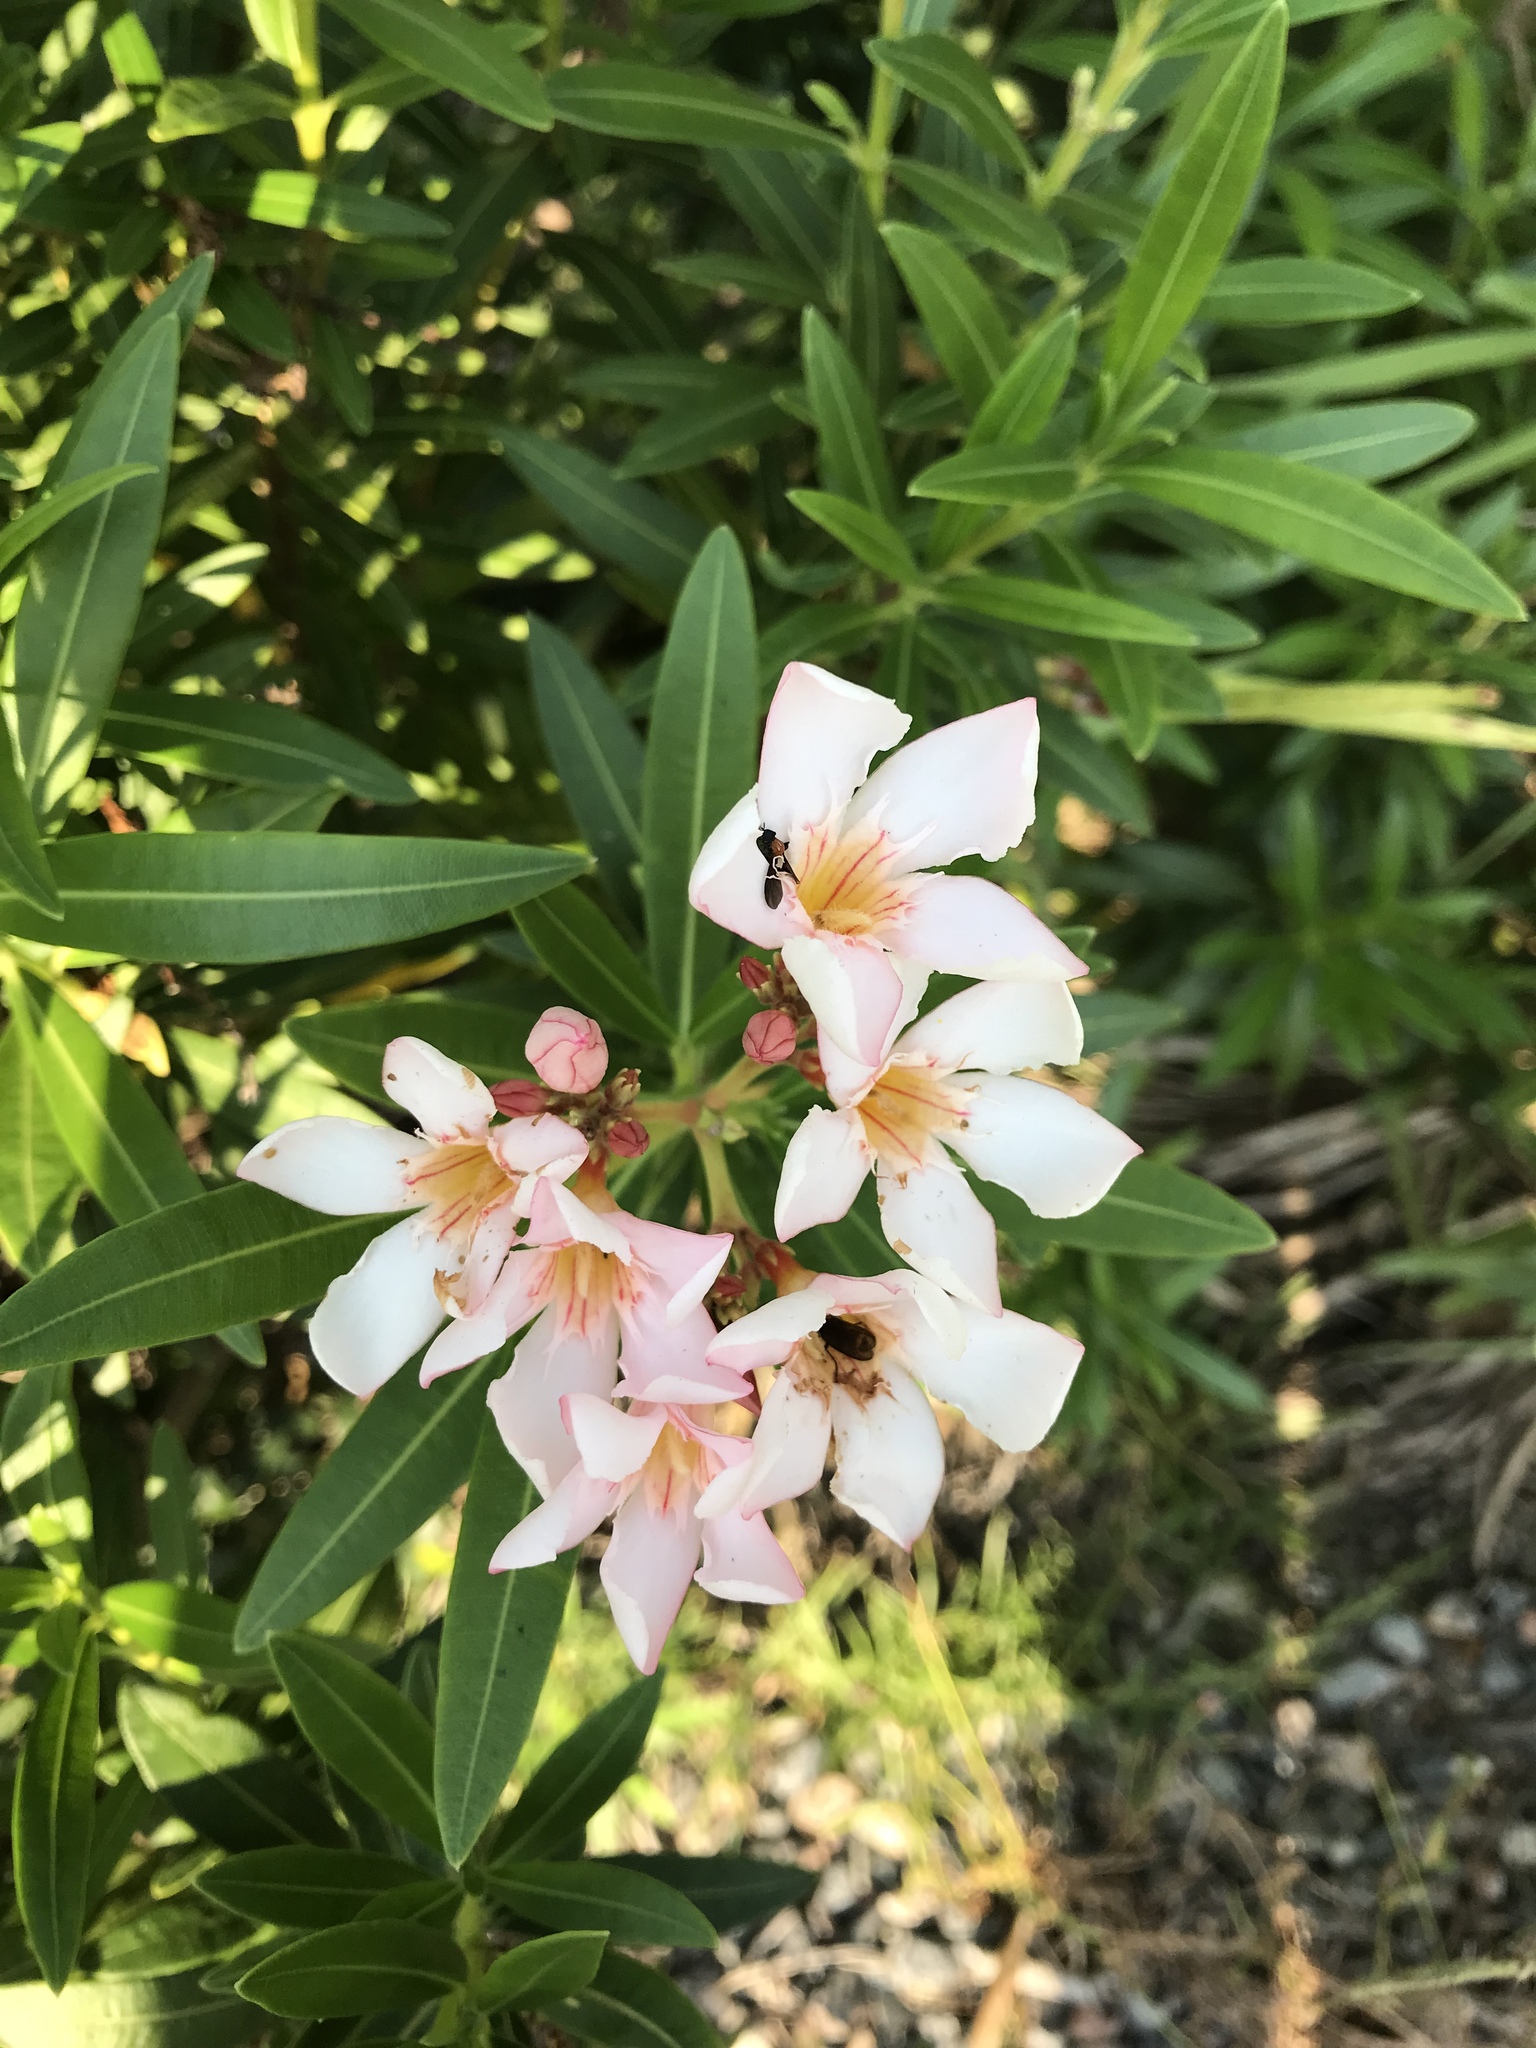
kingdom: Plantae
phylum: Tracheophyta
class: Magnoliopsida
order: Gentianales
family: Apocynaceae
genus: Nerium
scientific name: Nerium oleander
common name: Oleander
